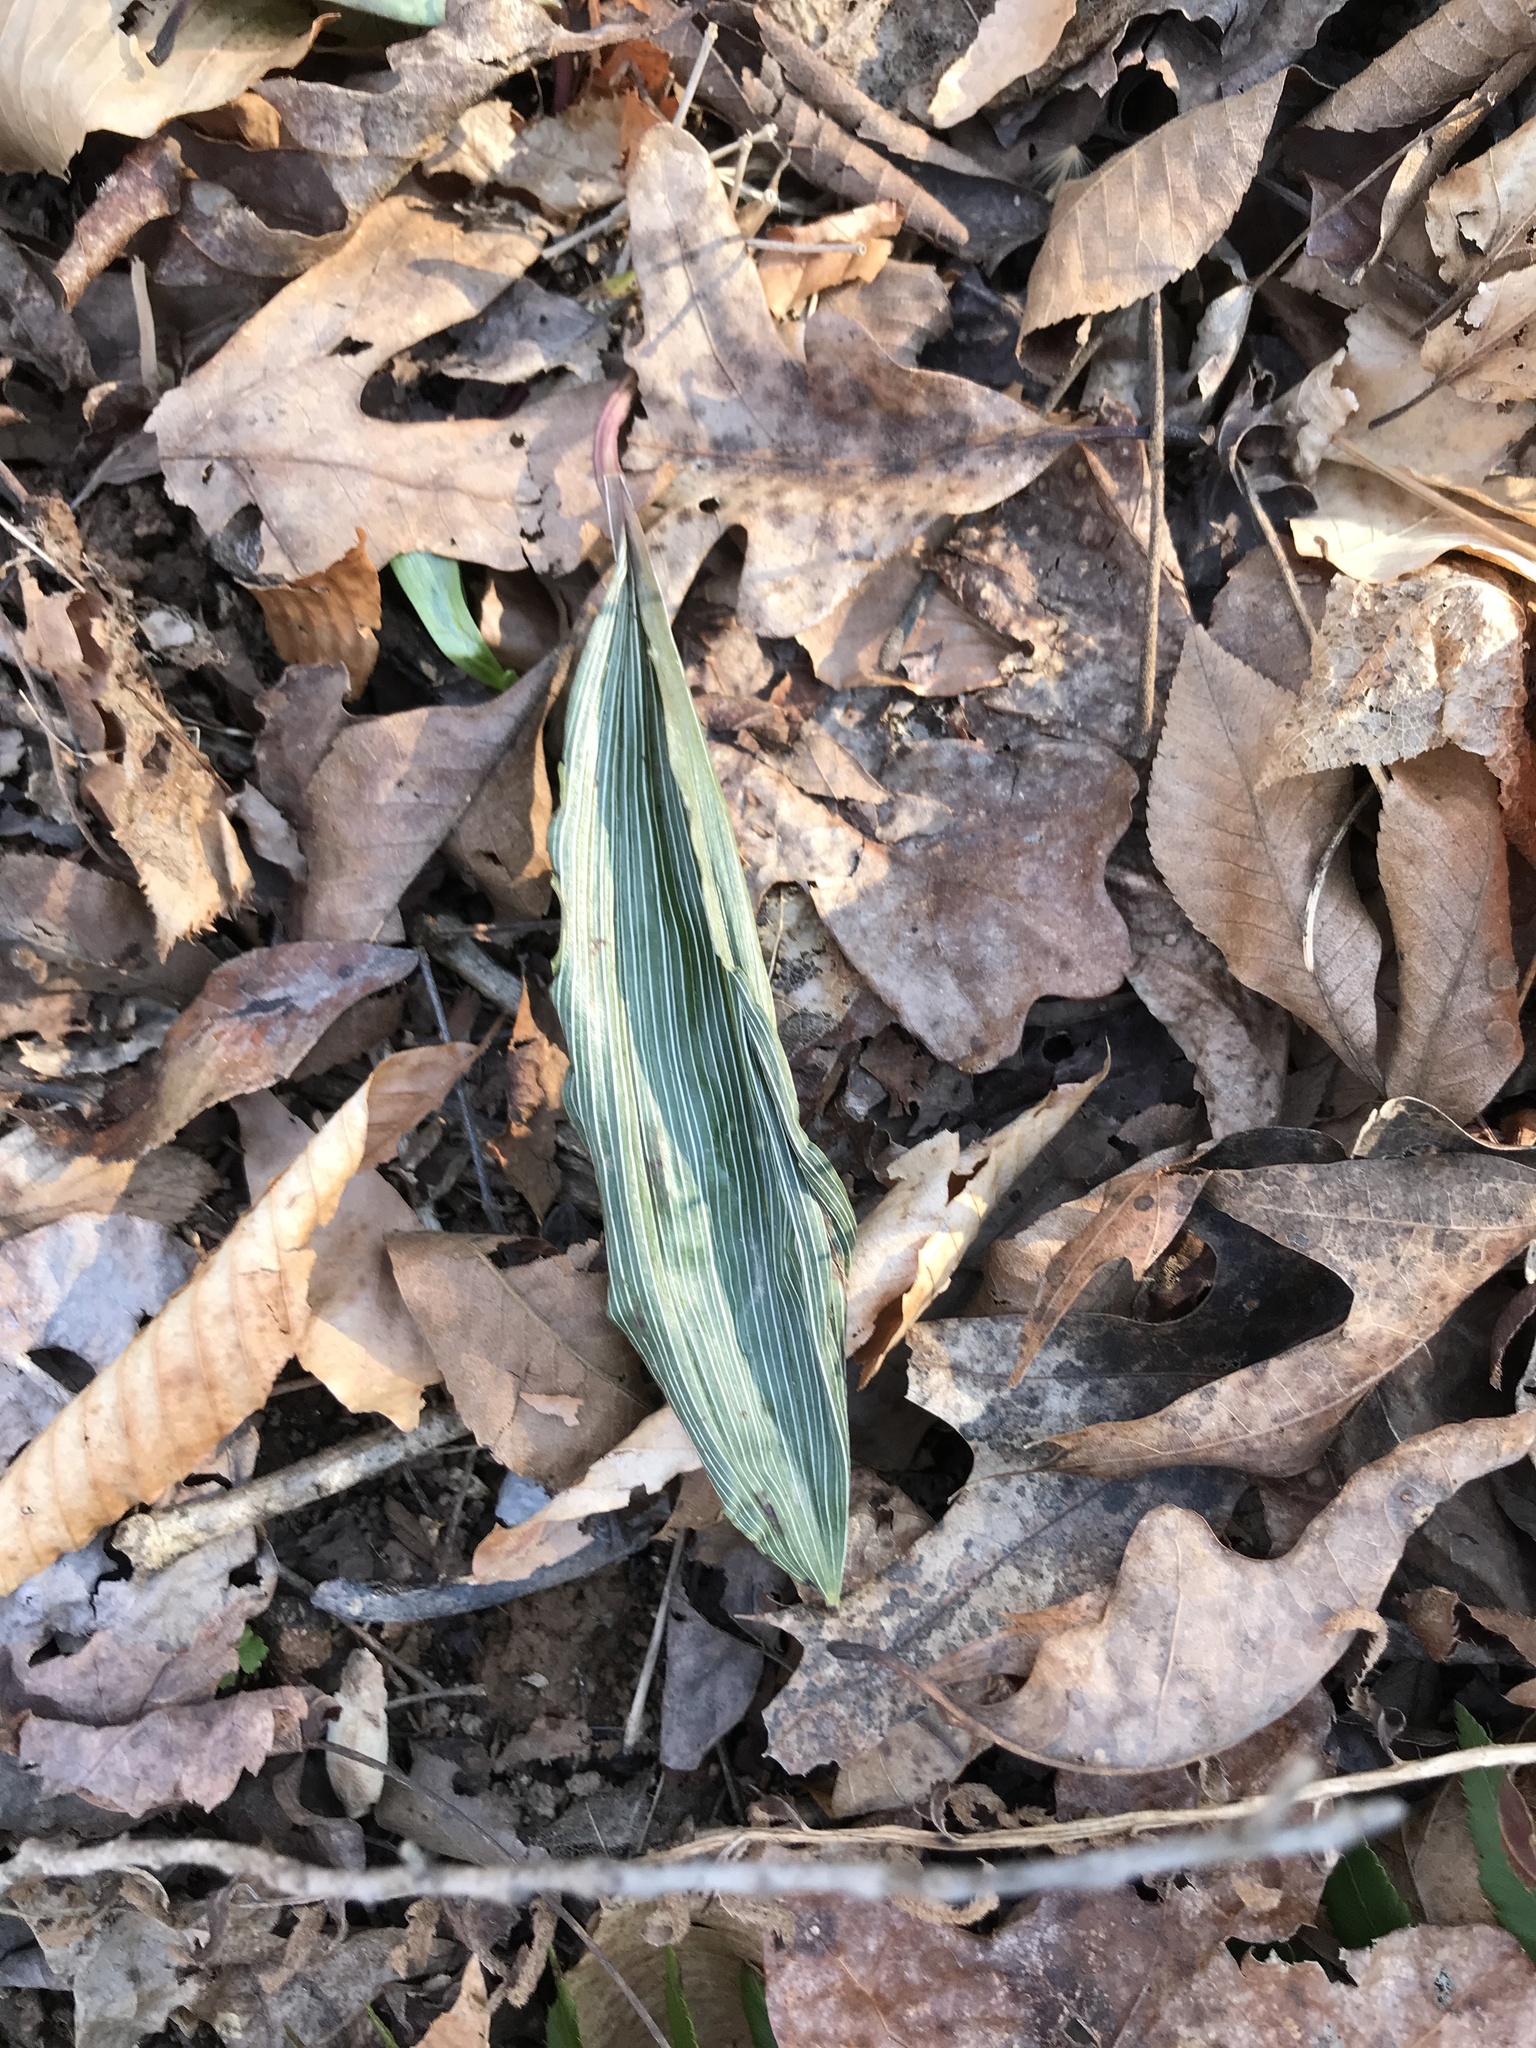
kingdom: Plantae
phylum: Tracheophyta
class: Liliopsida
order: Asparagales
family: Orchidaceae
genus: Aplectrum
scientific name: Aplectrum hyemale
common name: Adam-and-eve
